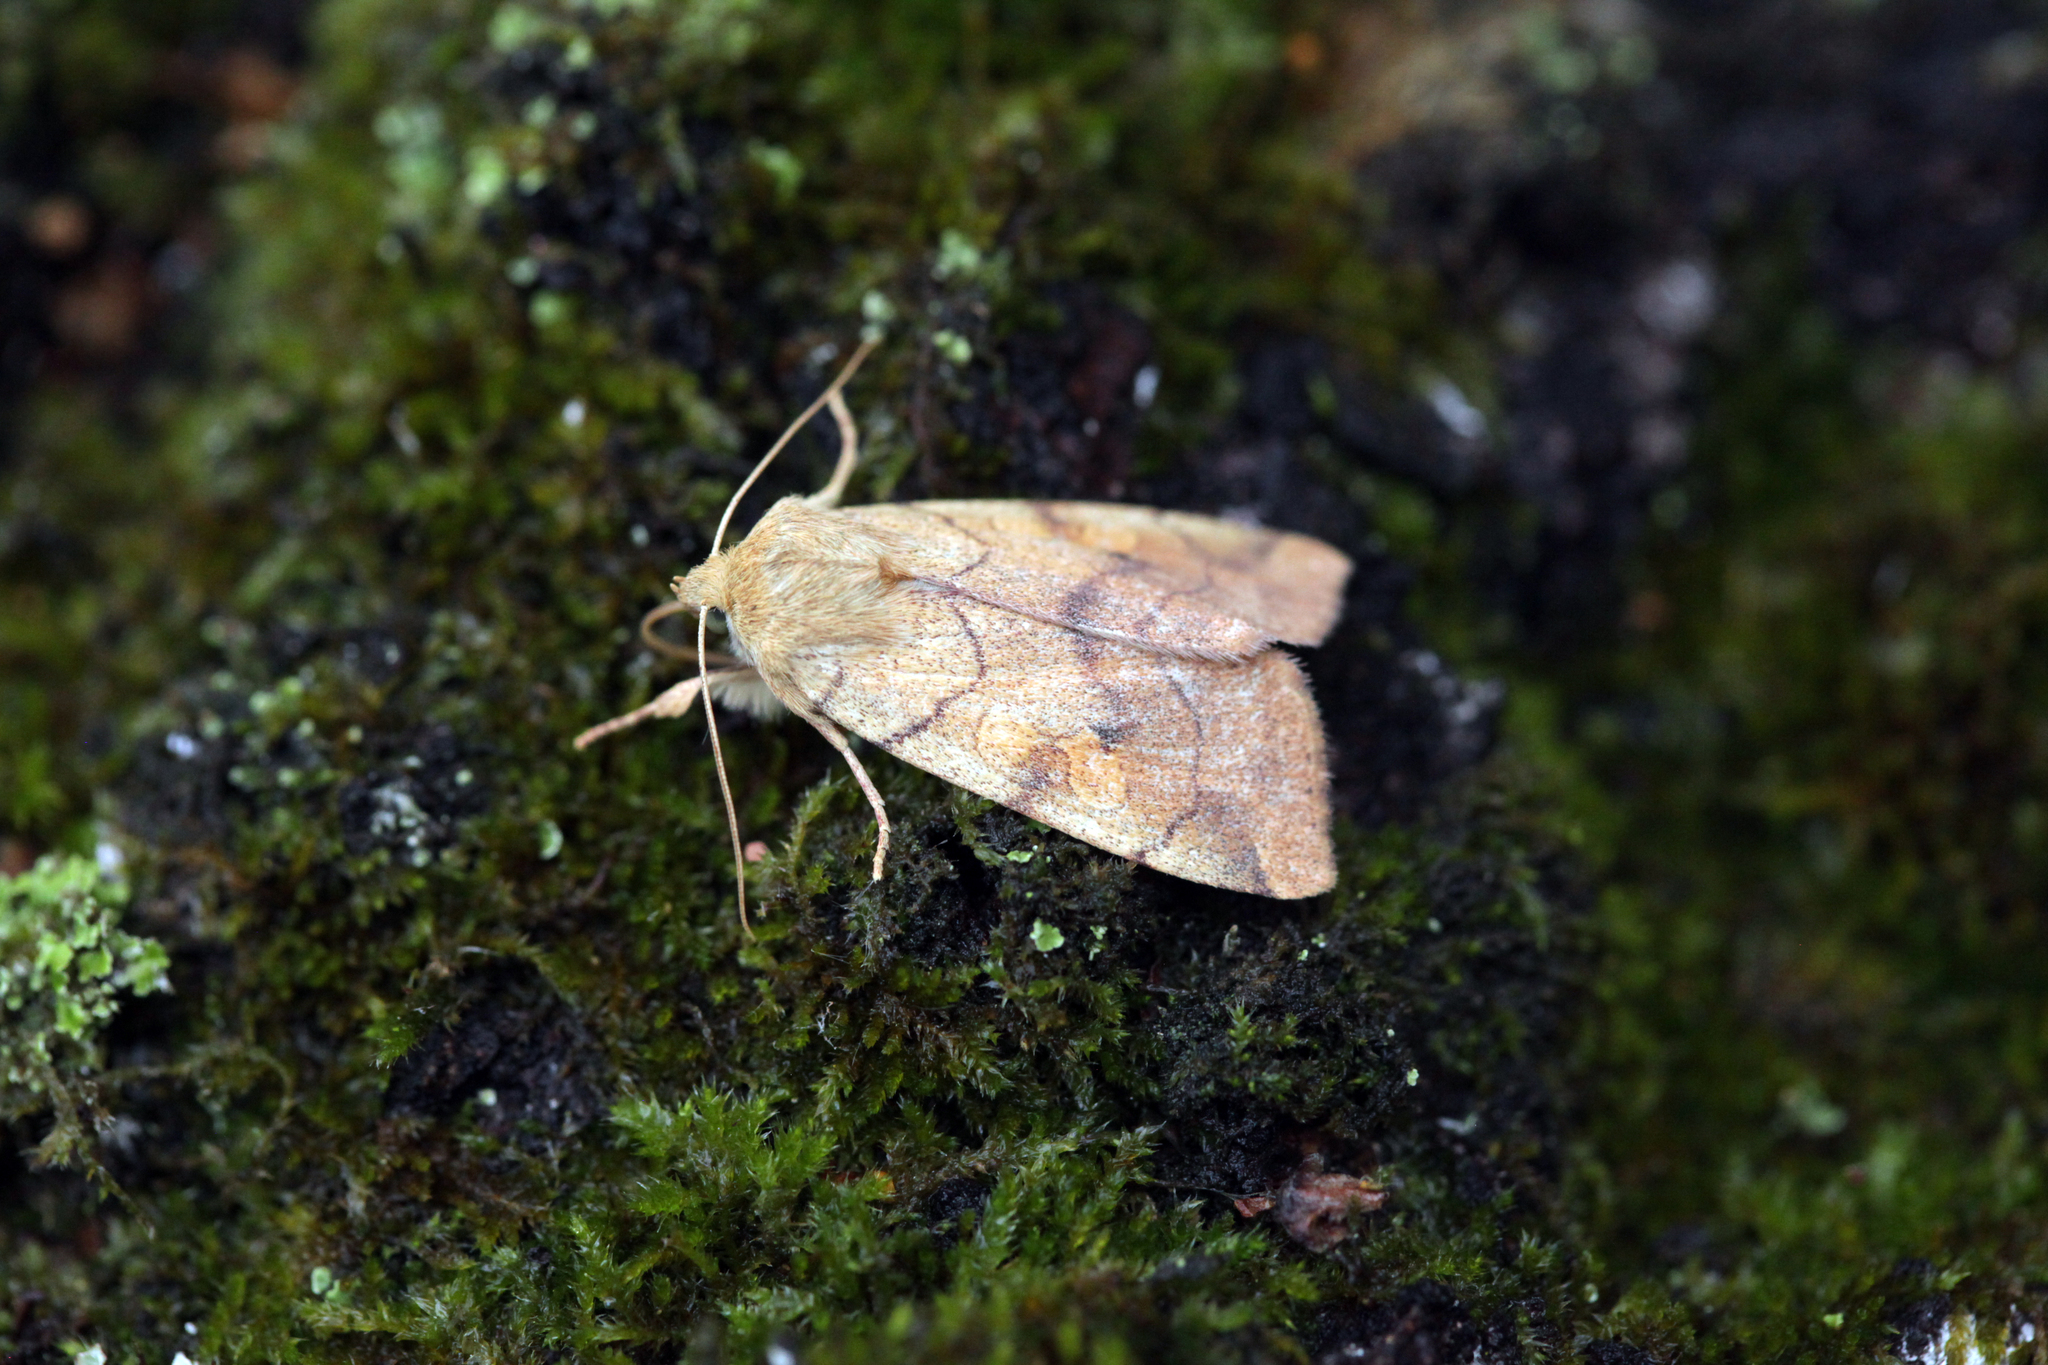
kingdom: Animalia
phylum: Arthropoda
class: Insecta
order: Lepidoptera
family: Noctuidae
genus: Enargia
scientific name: Enargia paleacea
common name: Angle-striped sallow
